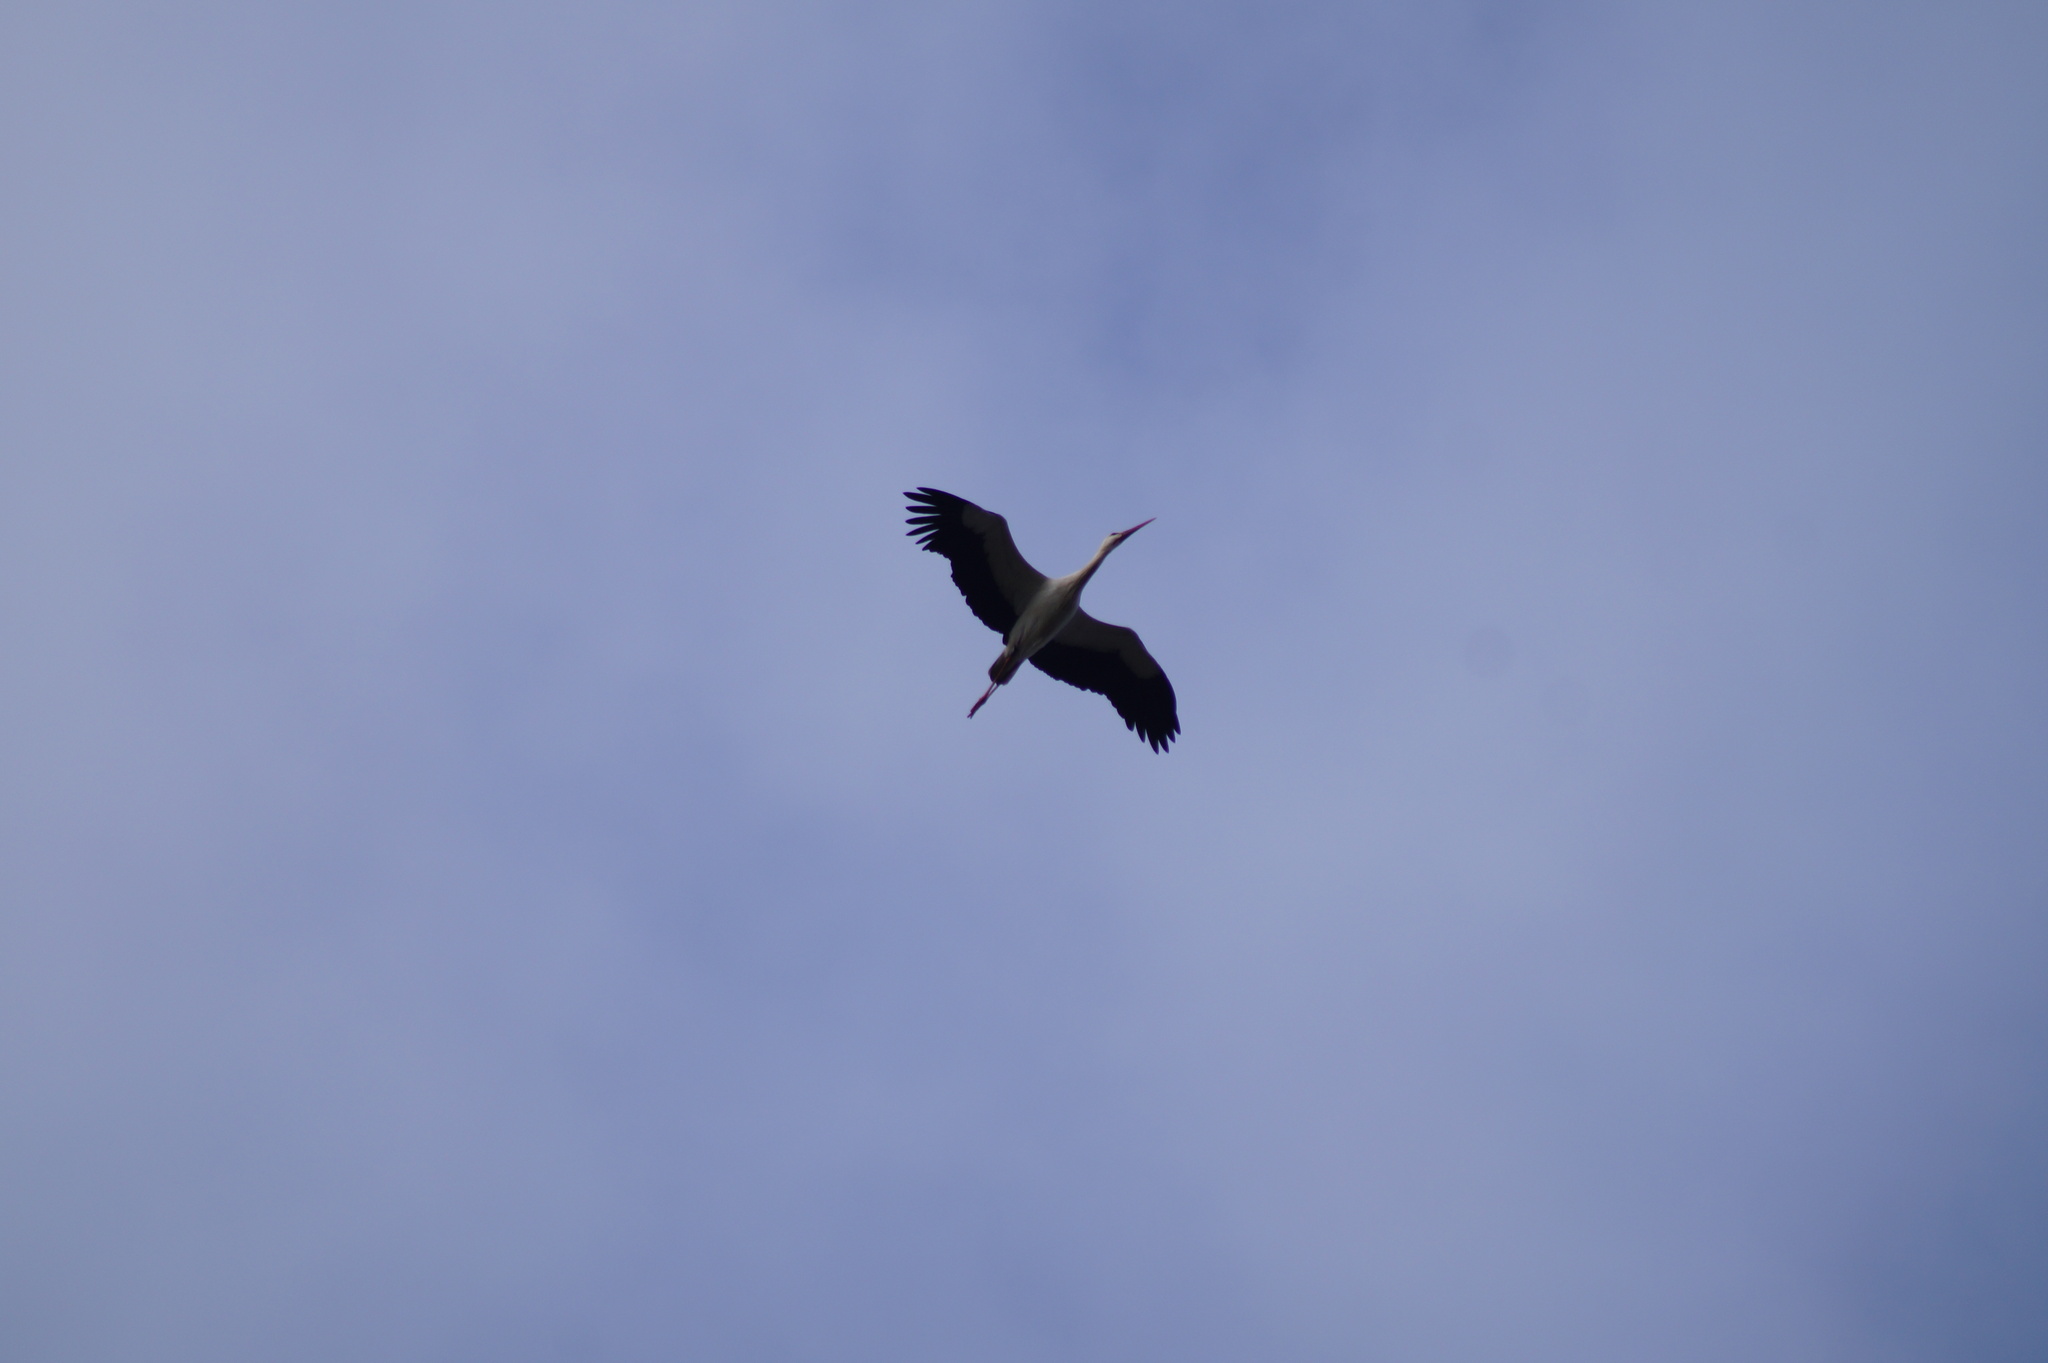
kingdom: Animalia
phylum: Chordata
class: Aves
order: Ciconiiformes
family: Ciconiidae
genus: Ciconia
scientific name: Ciconia ciconia
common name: White stork
